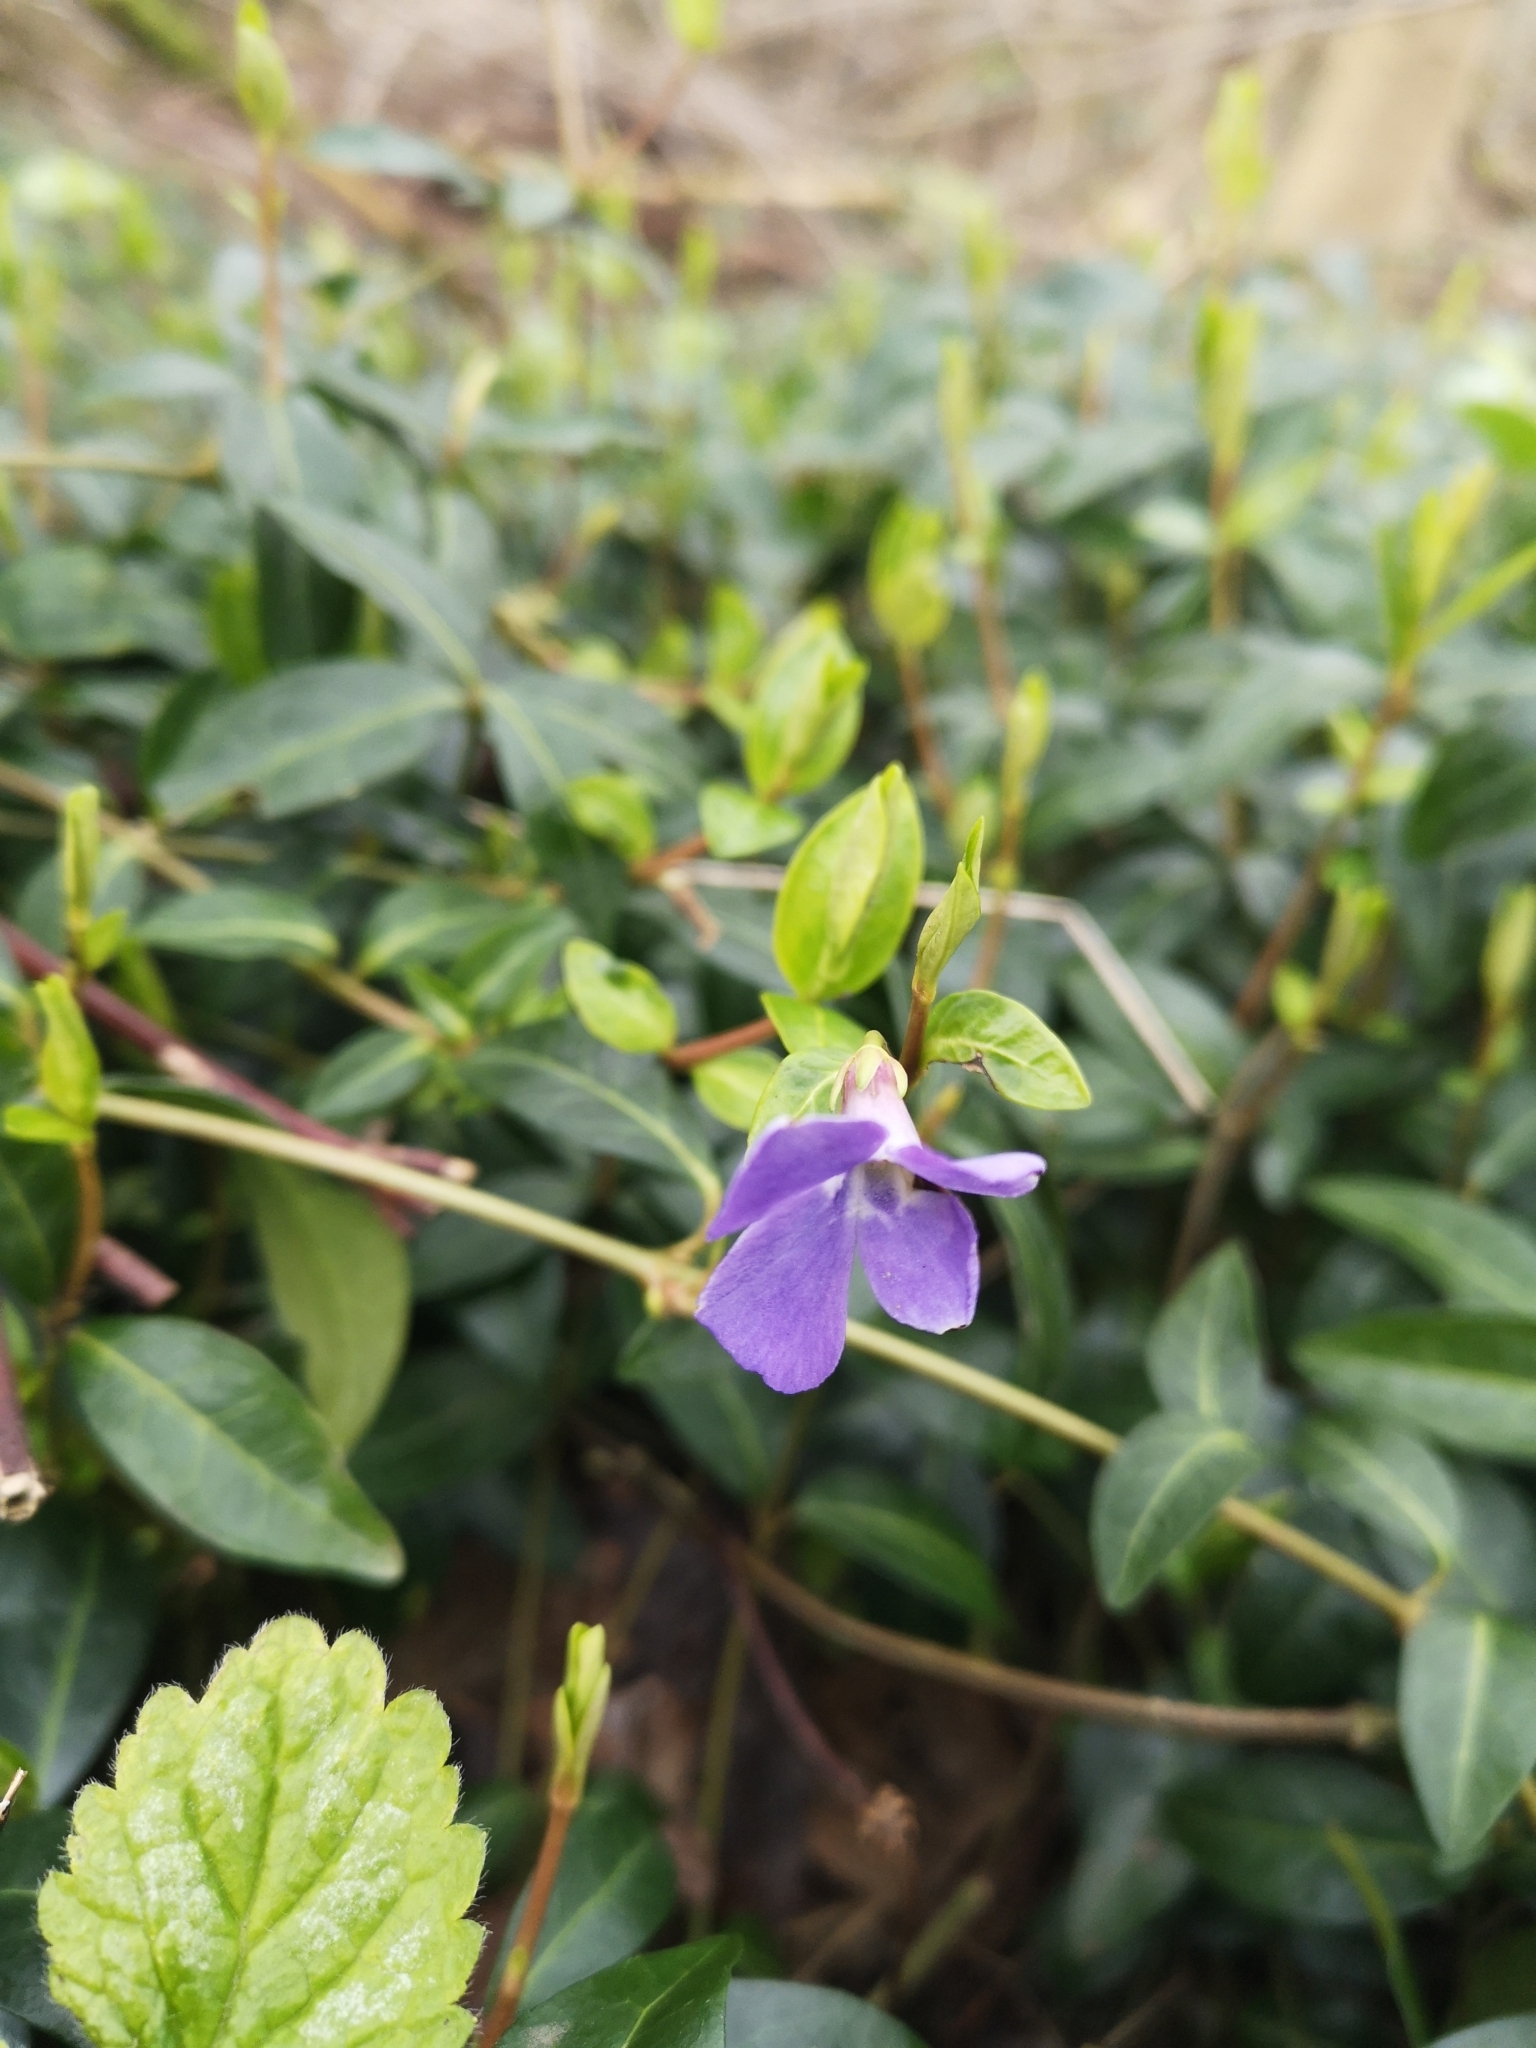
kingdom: Plantae
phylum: Tracheophyta
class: Magnoliopsida
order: Gentianales
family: Apocynaceae
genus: Vinca
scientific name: Vinca minor
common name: Lesser periwinkle
